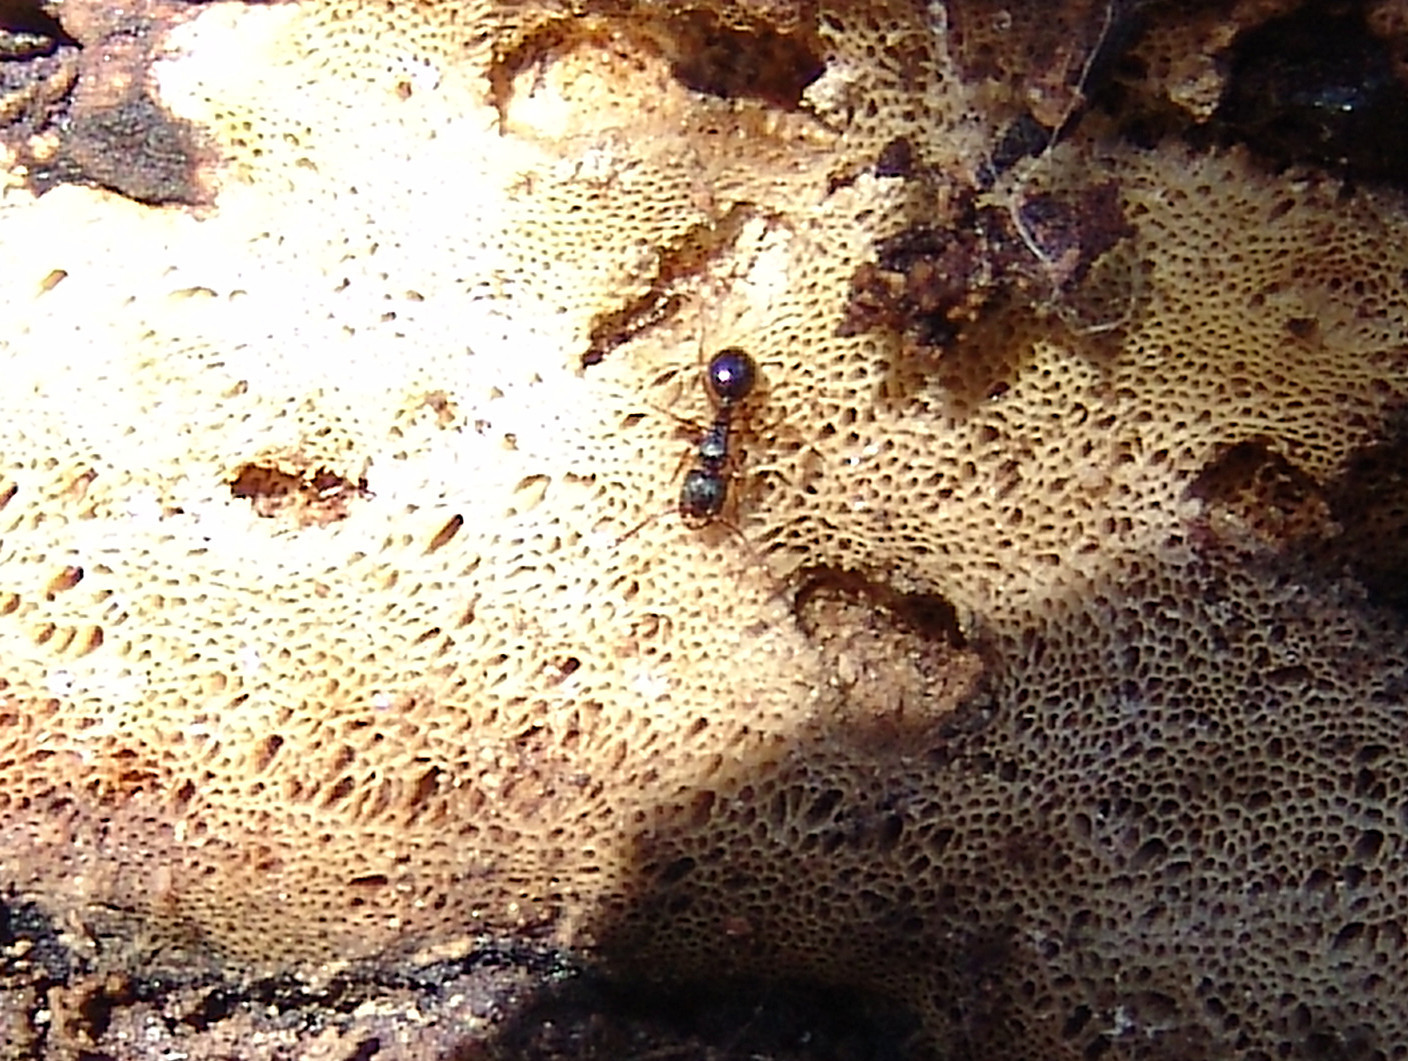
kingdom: Animalia
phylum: Arthropoda
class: Insecta
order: Hymenoptera
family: Formicidae
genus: Myrmecina
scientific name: Myrmecina americana
